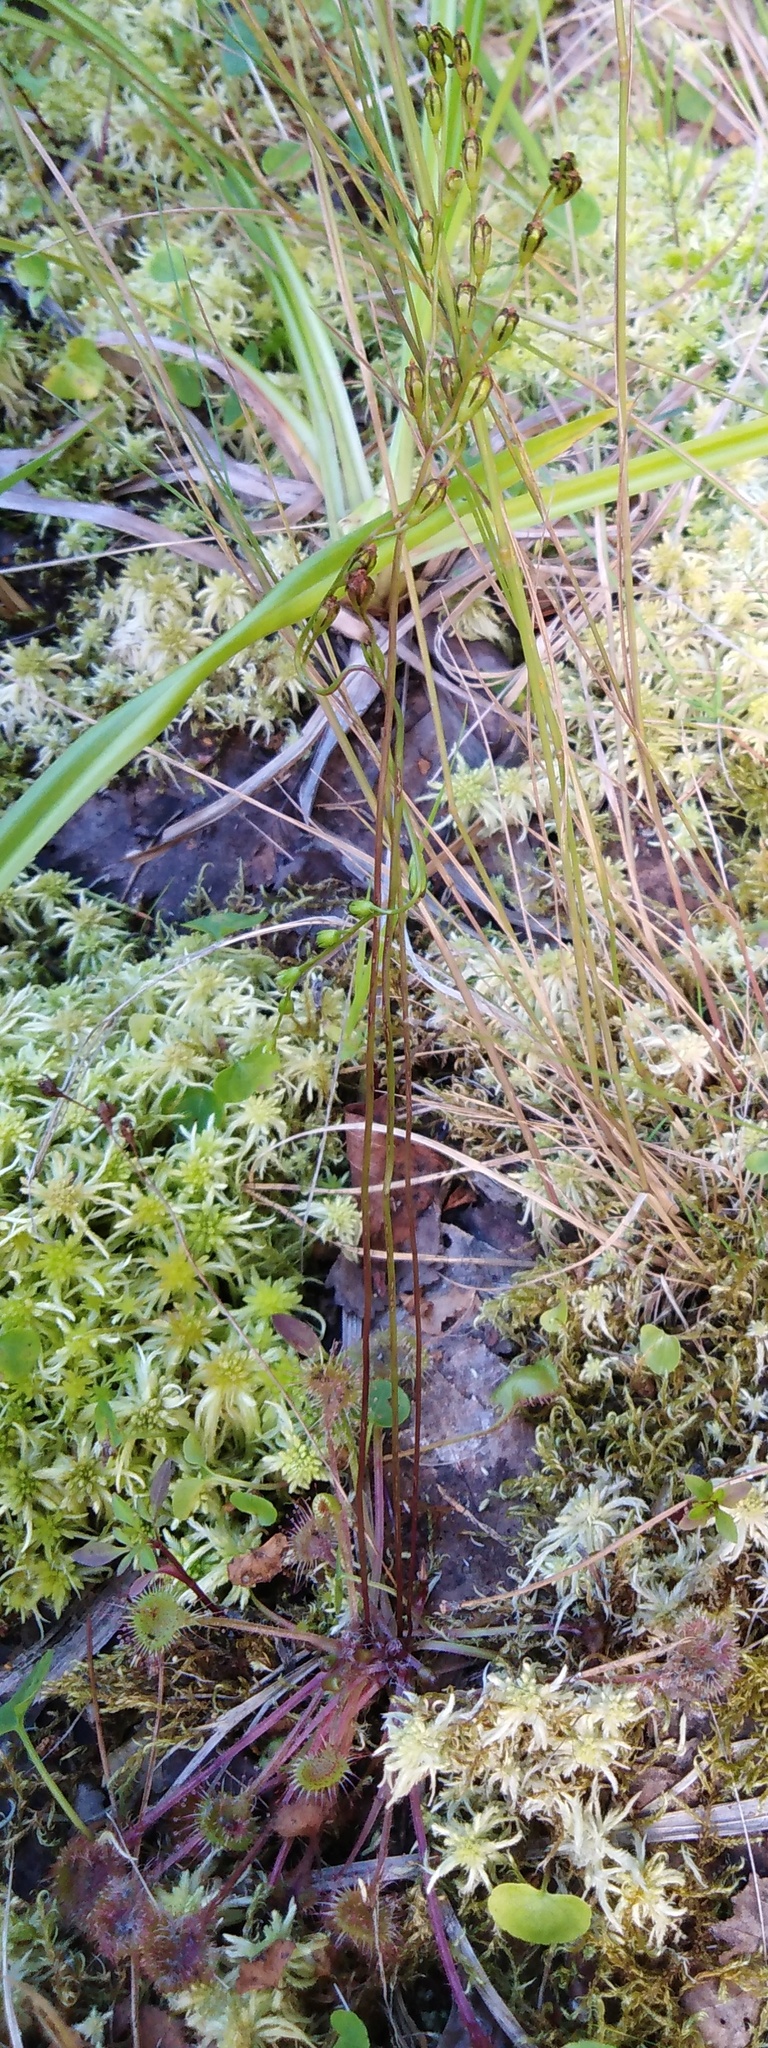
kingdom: Plantae
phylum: Tracheophyta
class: Magnoliopsida
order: Caryophyllales
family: Droseraceae
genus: Drosera
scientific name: Drosera rotundifolia
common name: Round-leaved sundew
